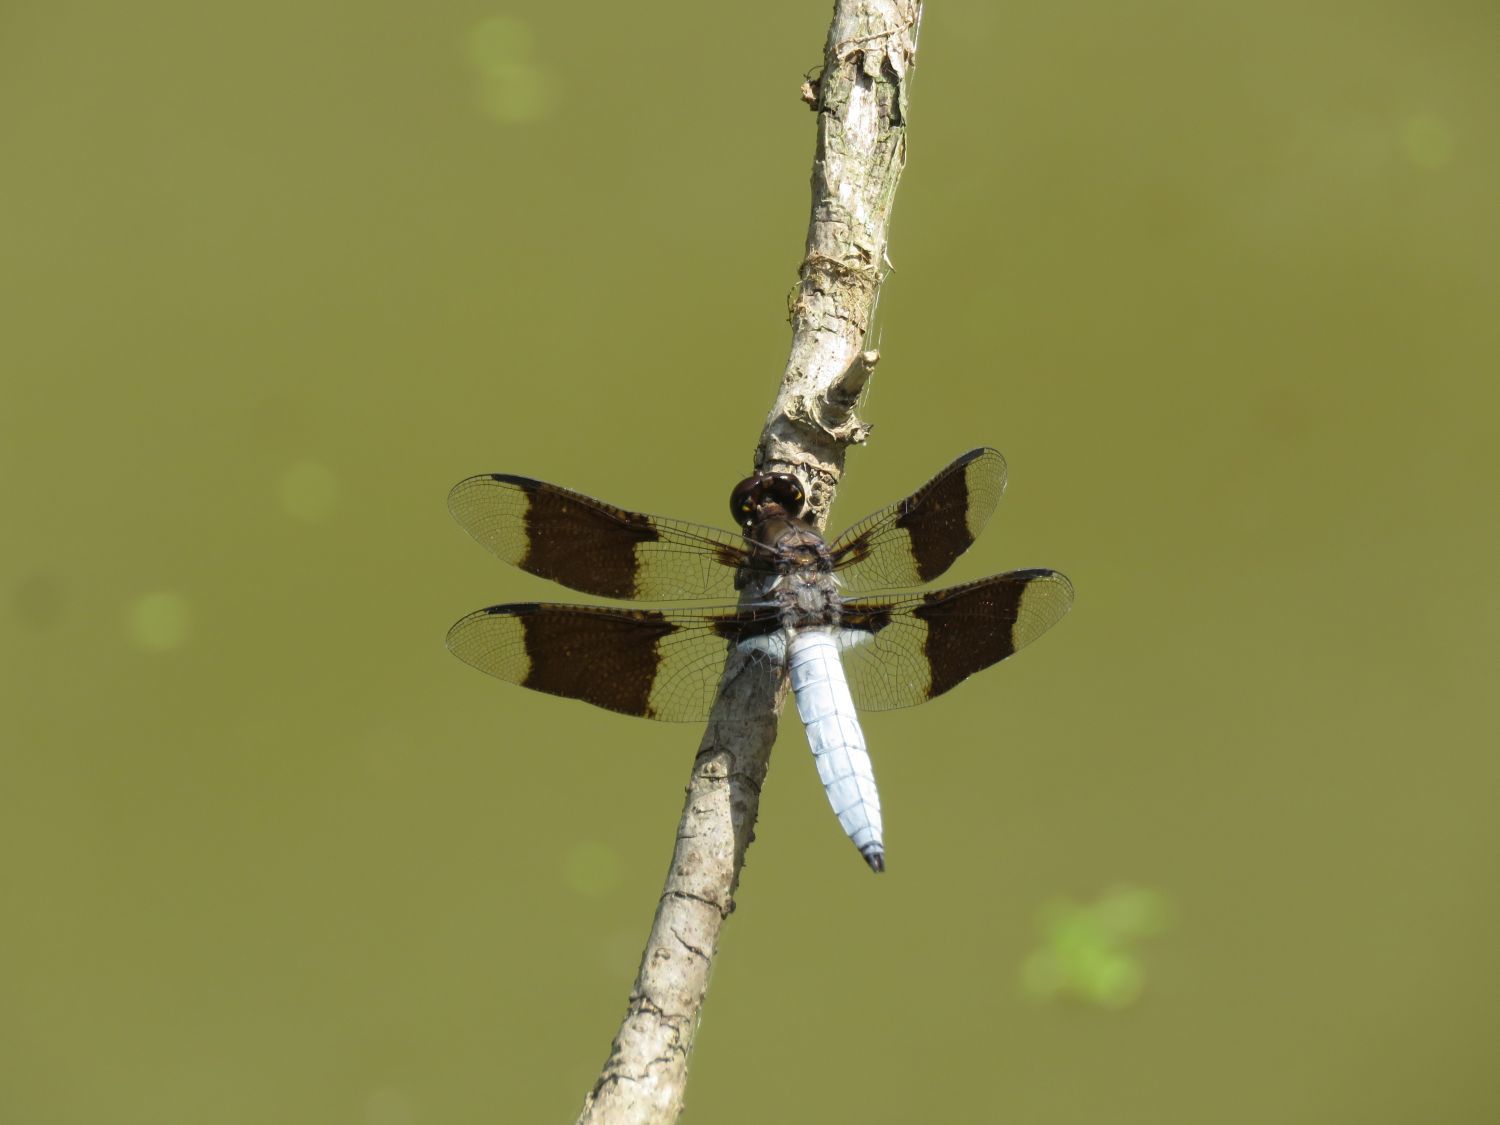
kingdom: Animalia
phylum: Arthropoda
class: Insecta
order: Odonata
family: Libellulidae
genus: Plathemis
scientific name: Plathemis lydia
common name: Common whitetail
